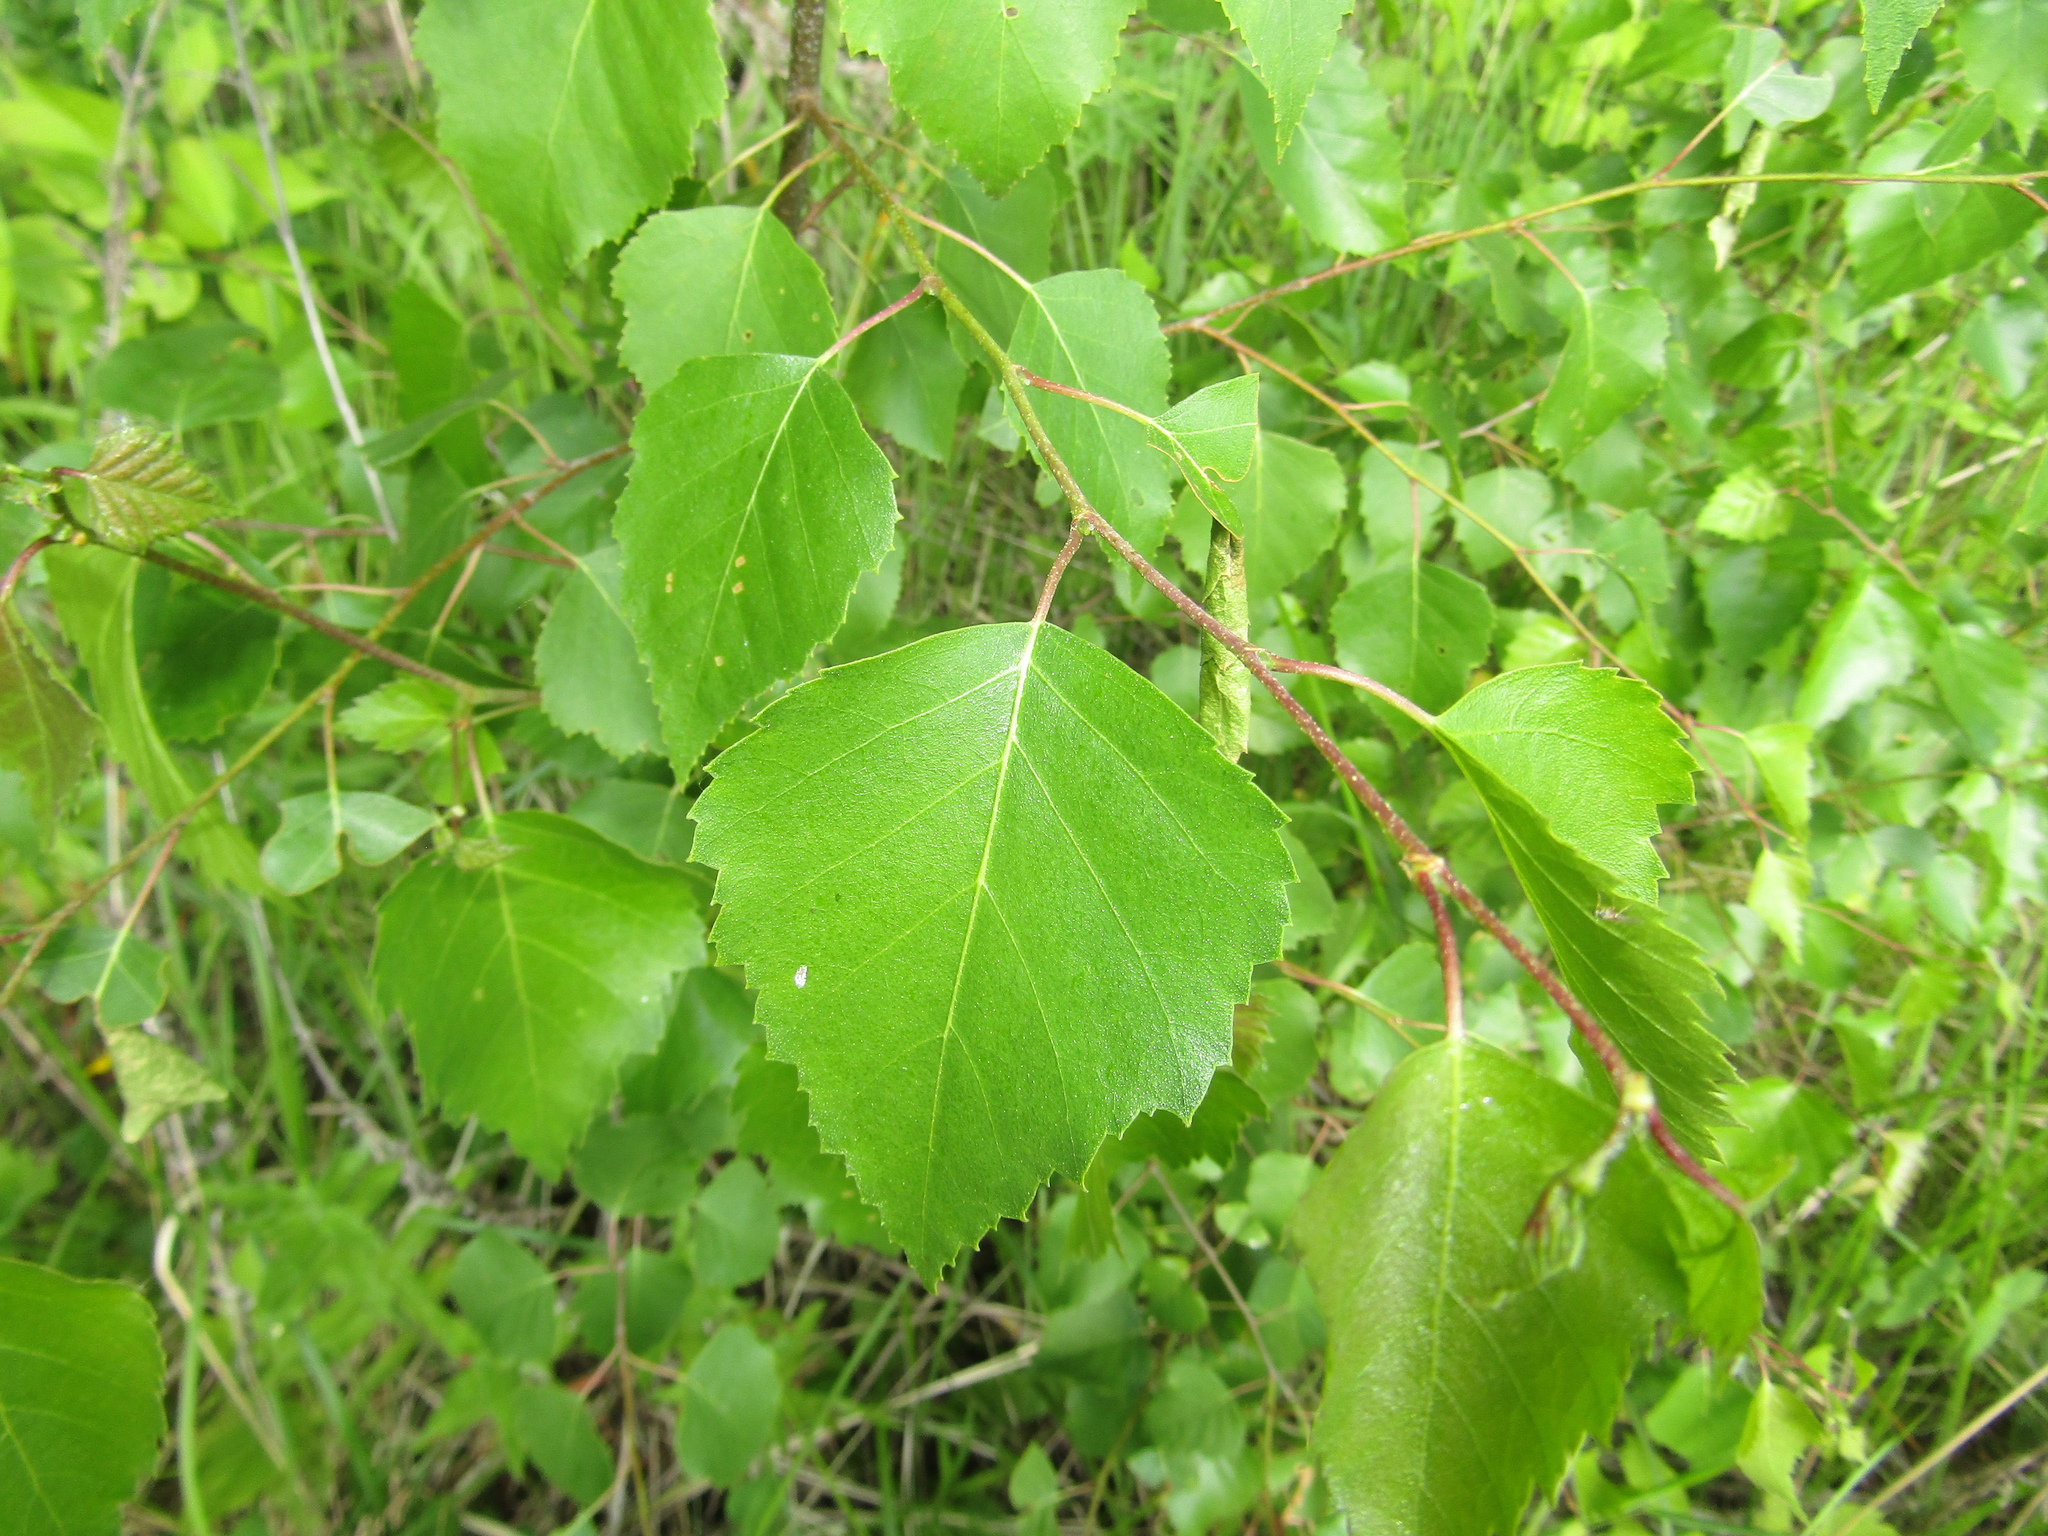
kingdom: Plantae
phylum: Tracheophyta
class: Magnoliopsida
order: Fagales
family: Betulaceae
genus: Betula
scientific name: Betula pendula
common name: Silver birch
